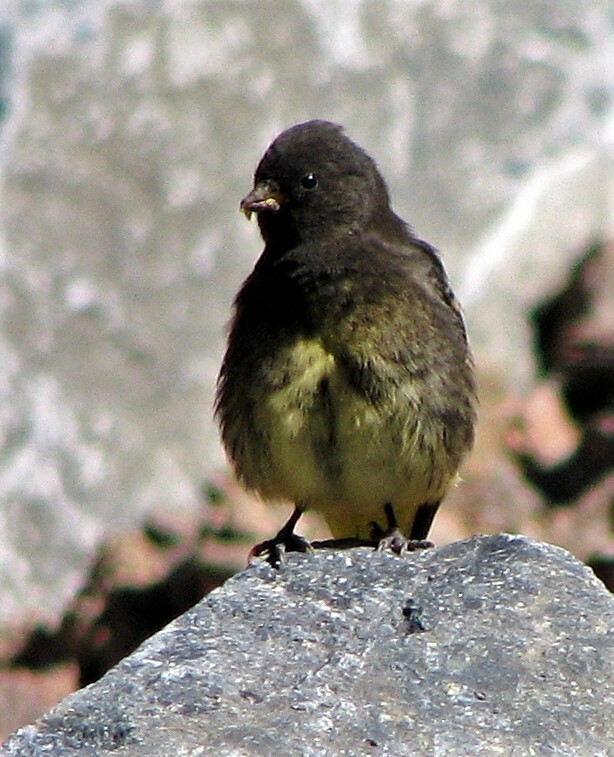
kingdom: Animalia
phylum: Chordata
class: Aves
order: Passeriformes
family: Fringillidae
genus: Spinus
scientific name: Spinus atratus
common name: Black siskin
